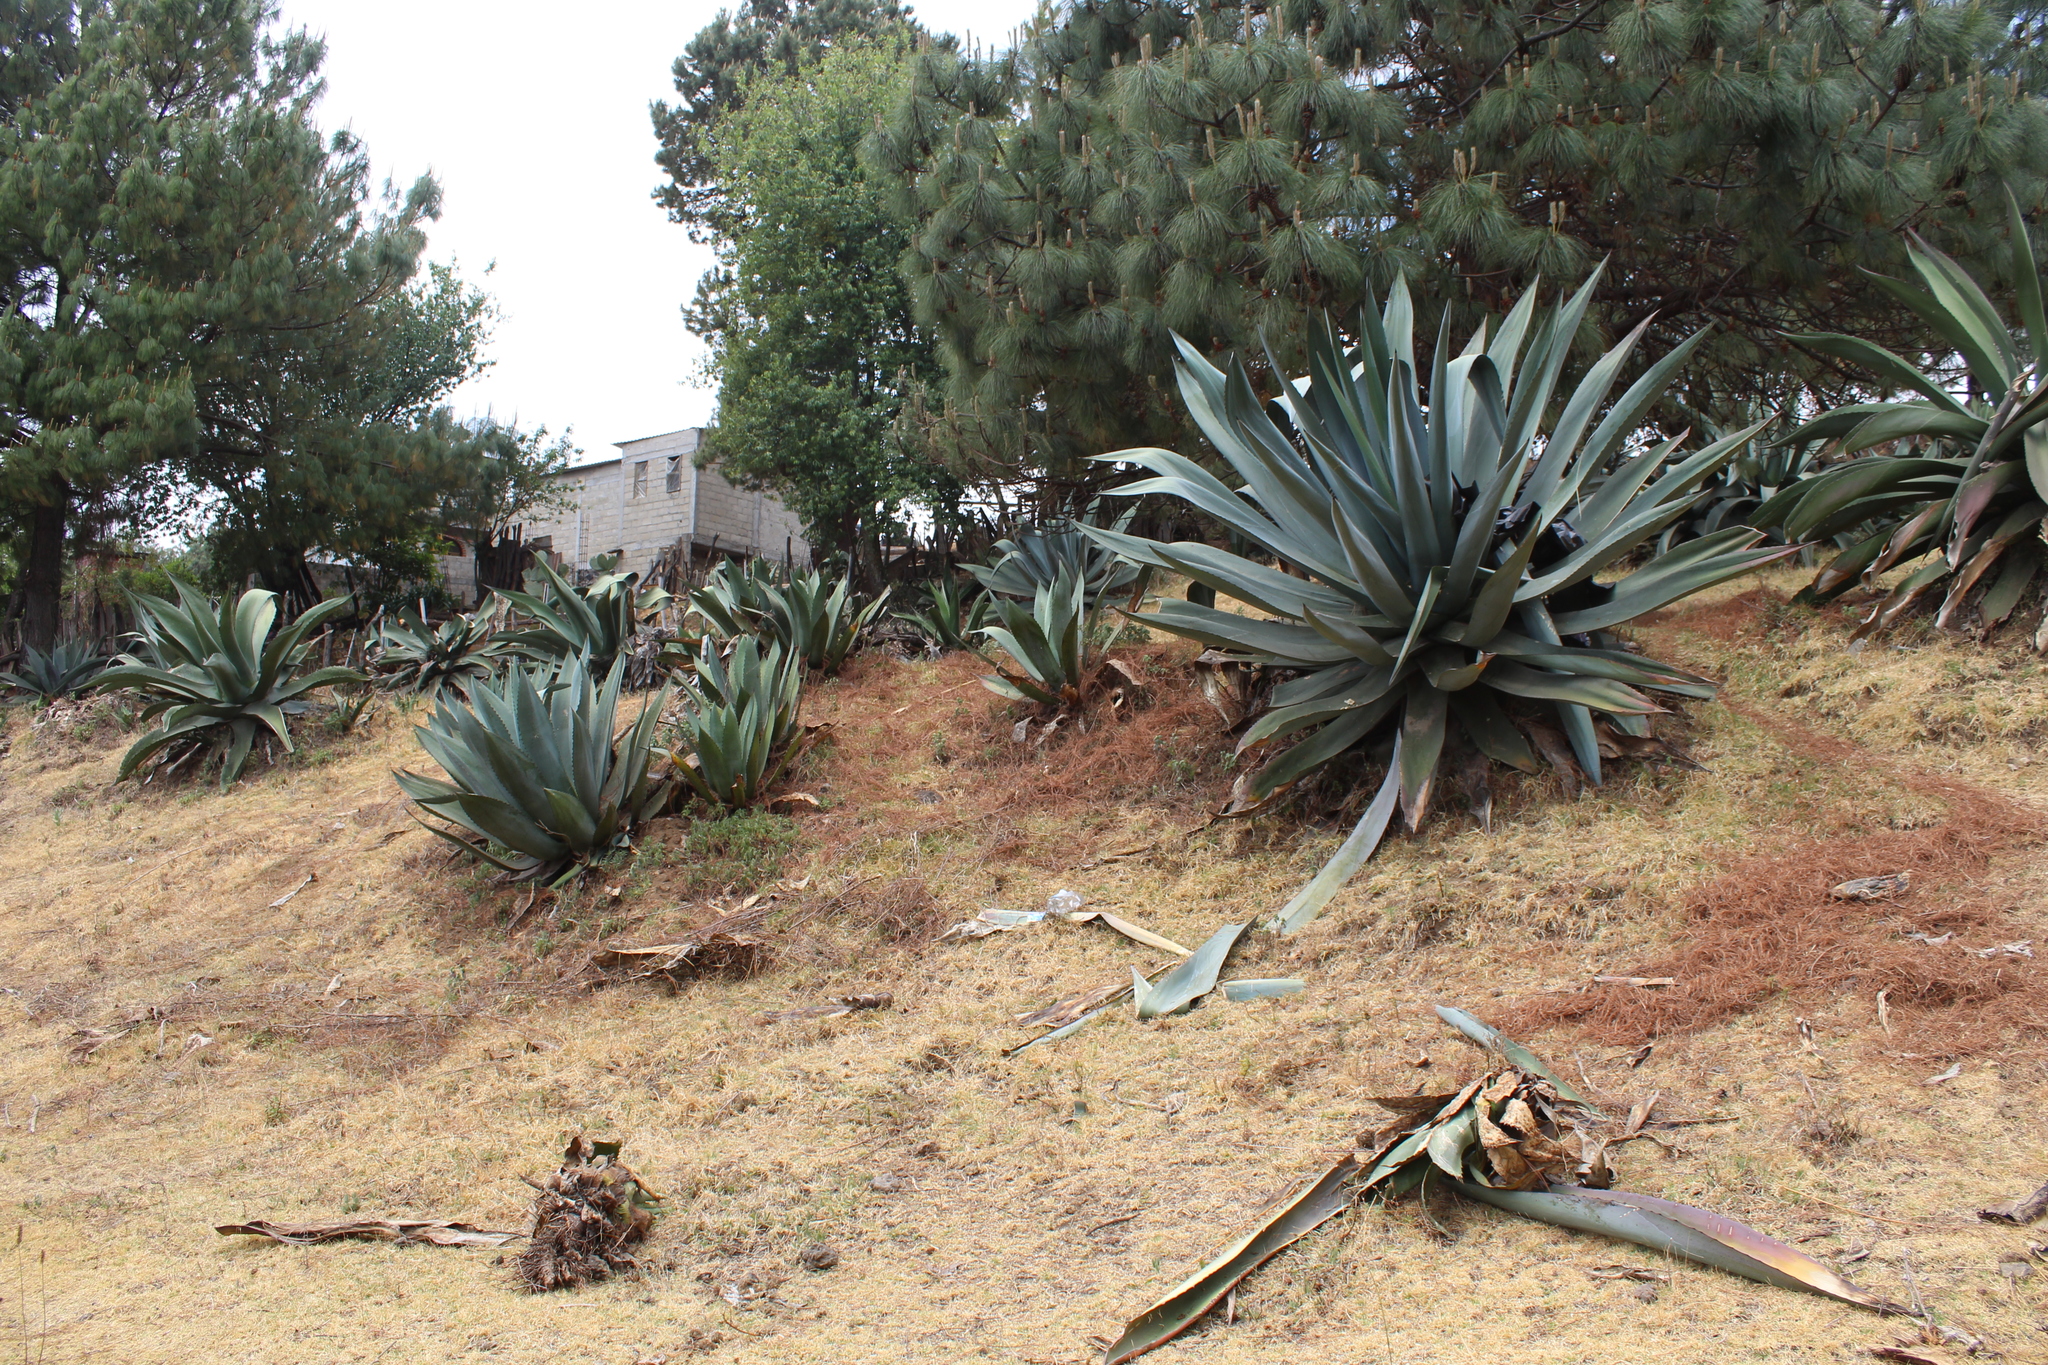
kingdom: Plantae
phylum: Tracheophyta
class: Liliopsida
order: Asparagales
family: Asparagaceae
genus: Agave
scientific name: Agave mapisaga
